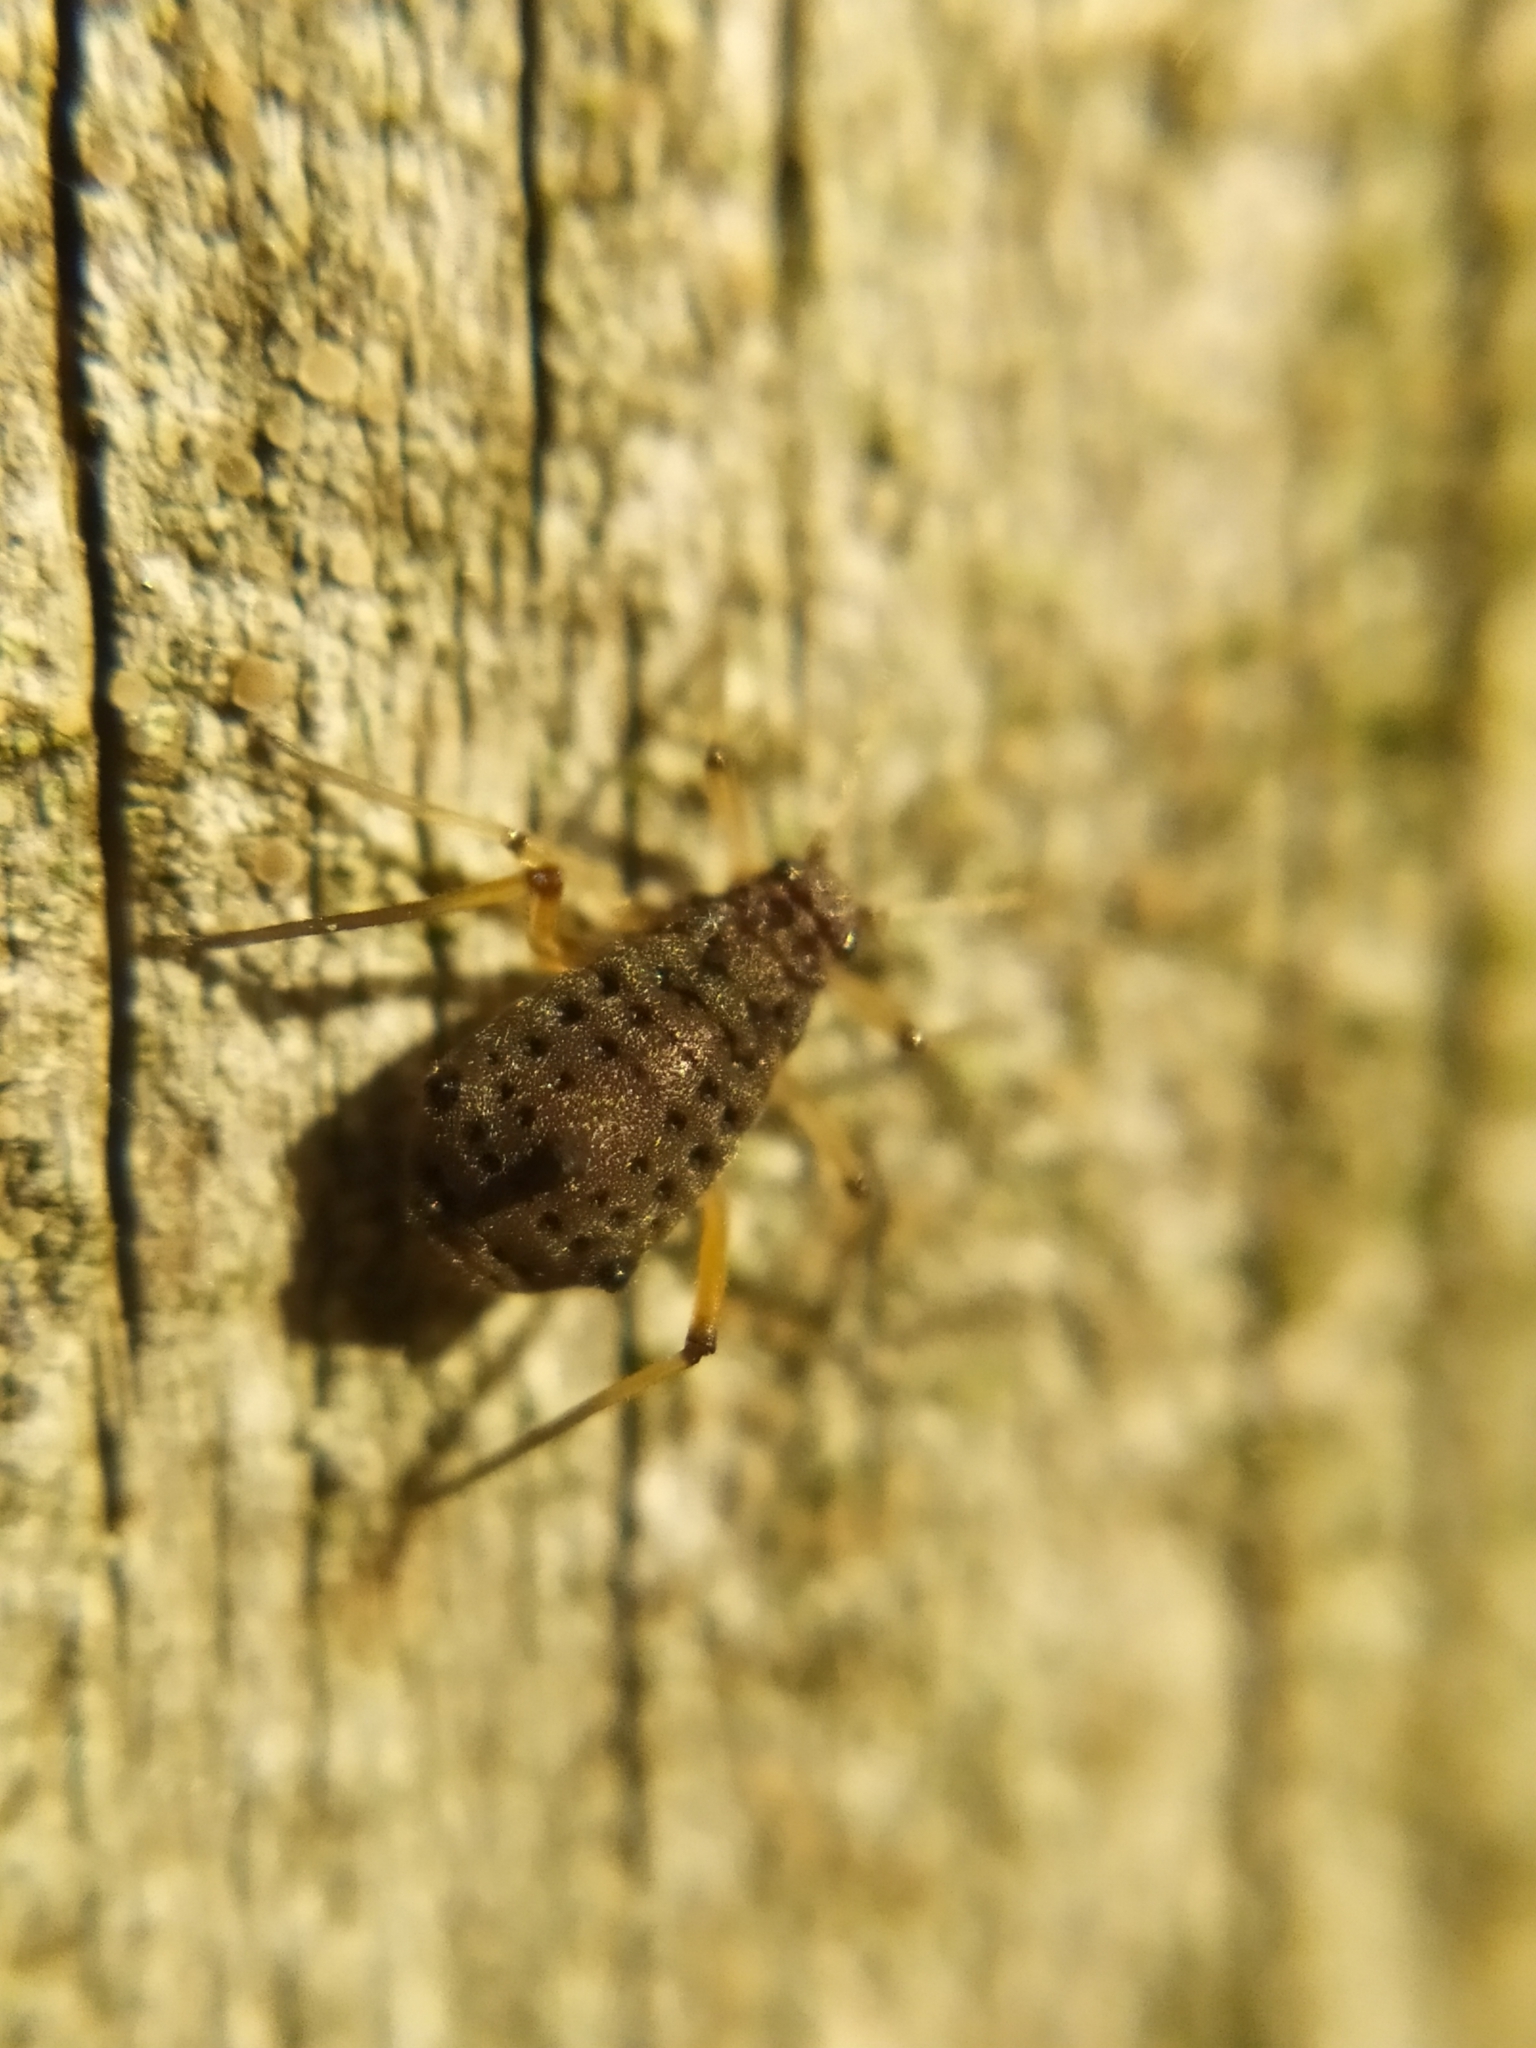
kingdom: Animalia
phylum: Arthropoda
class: Insecta
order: Hemiptera
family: Aphididae
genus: Tuberolachnus
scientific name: Tuberolachnus salignus
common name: Giant willow aphid
